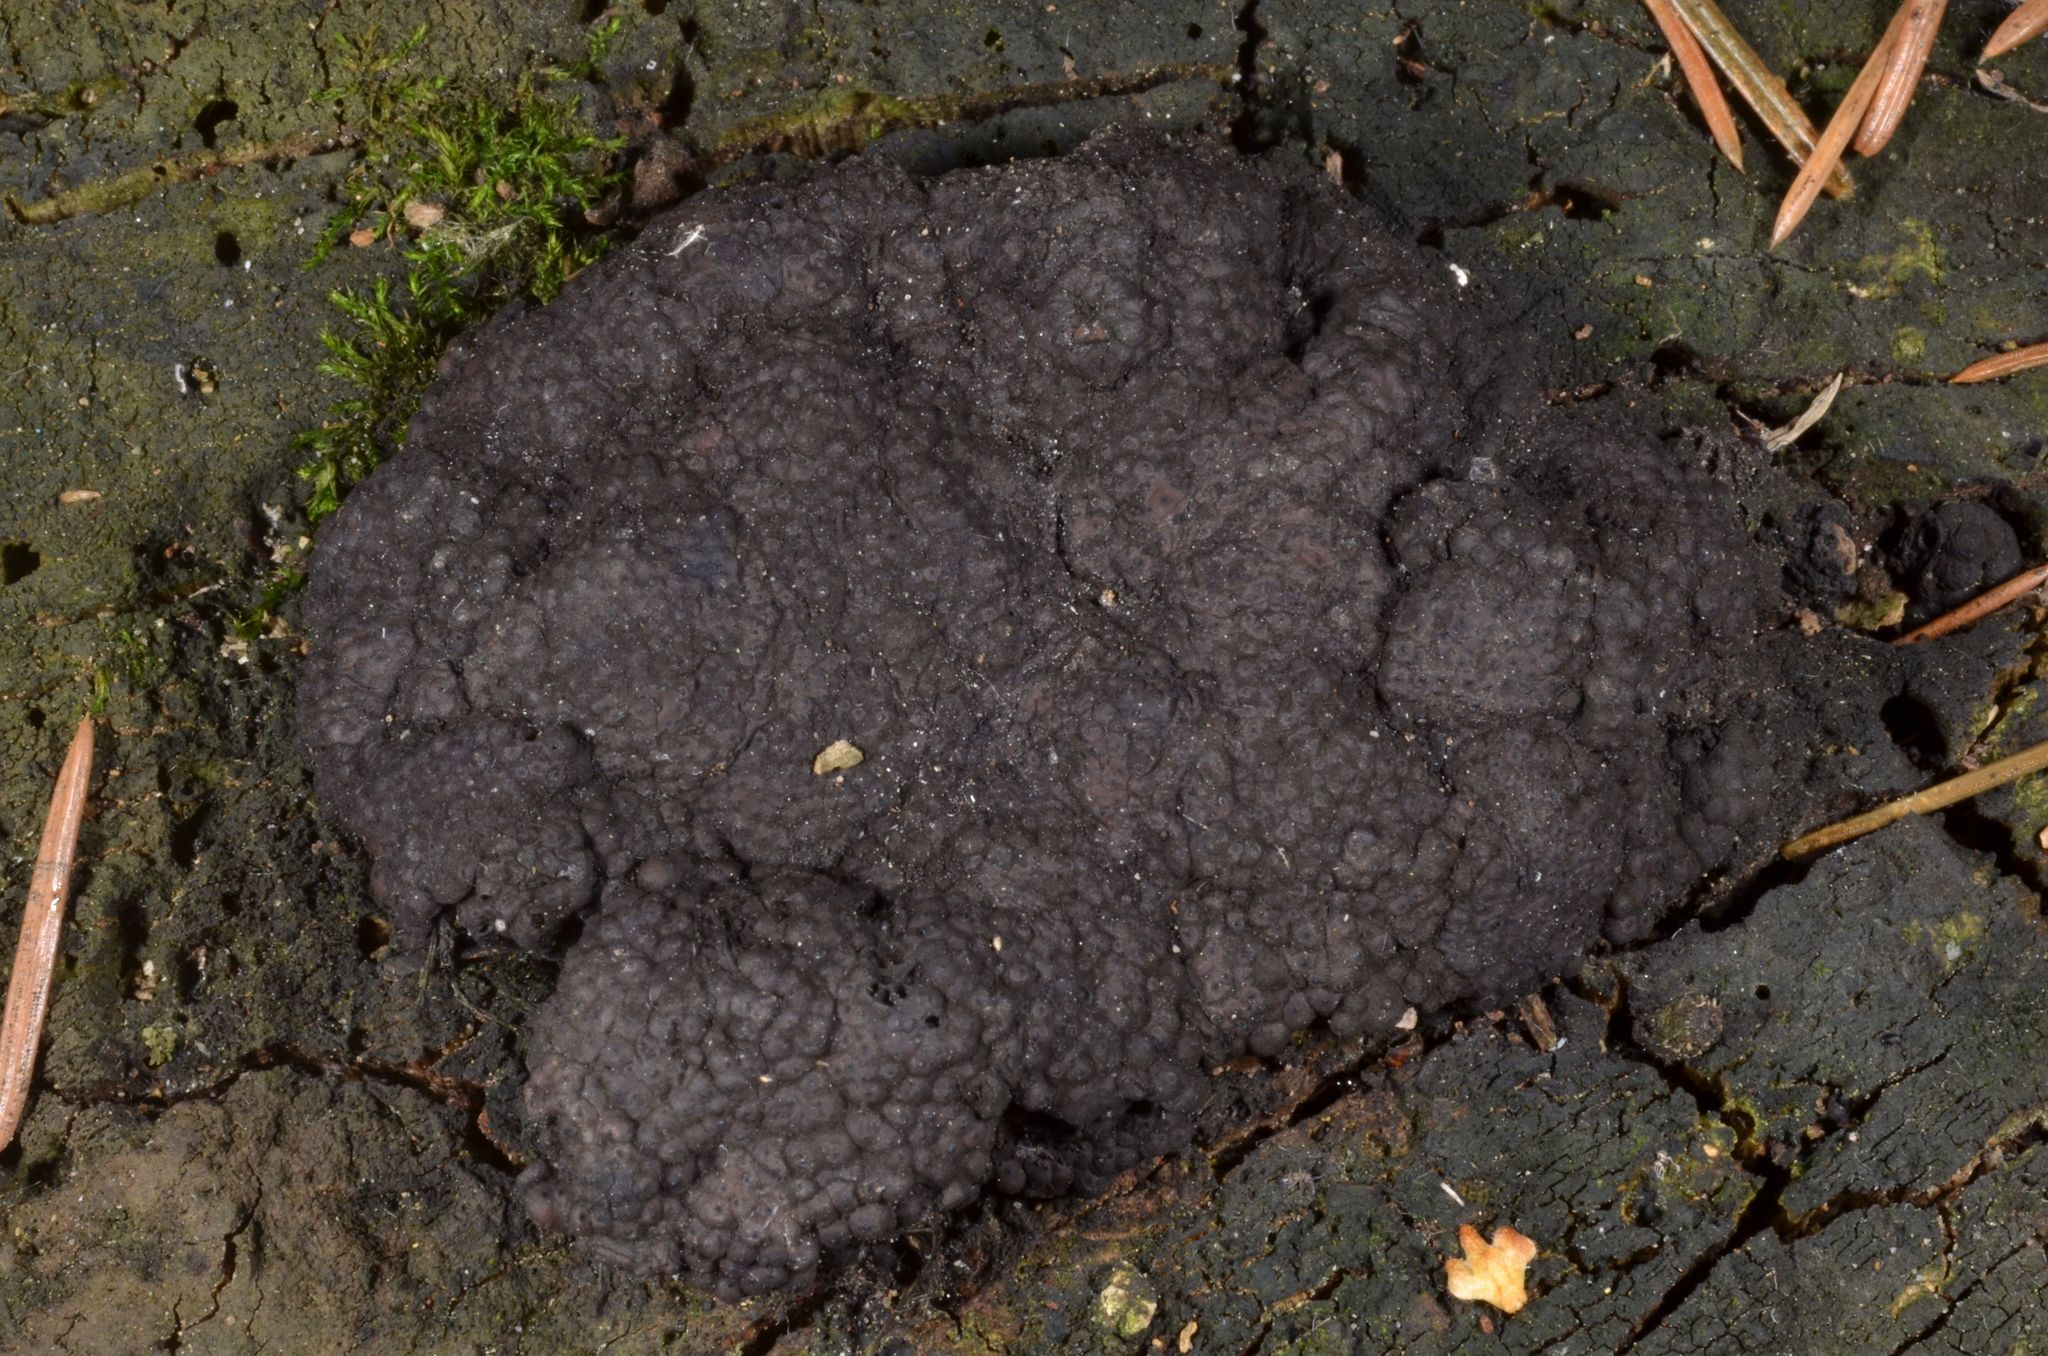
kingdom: Fungi
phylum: Ascomycota
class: Sordariomycetes
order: Xylariales
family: Hypoxylaceae
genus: Jackrogersella
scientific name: Jackrogersella multiformis
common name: Birch woodwart
